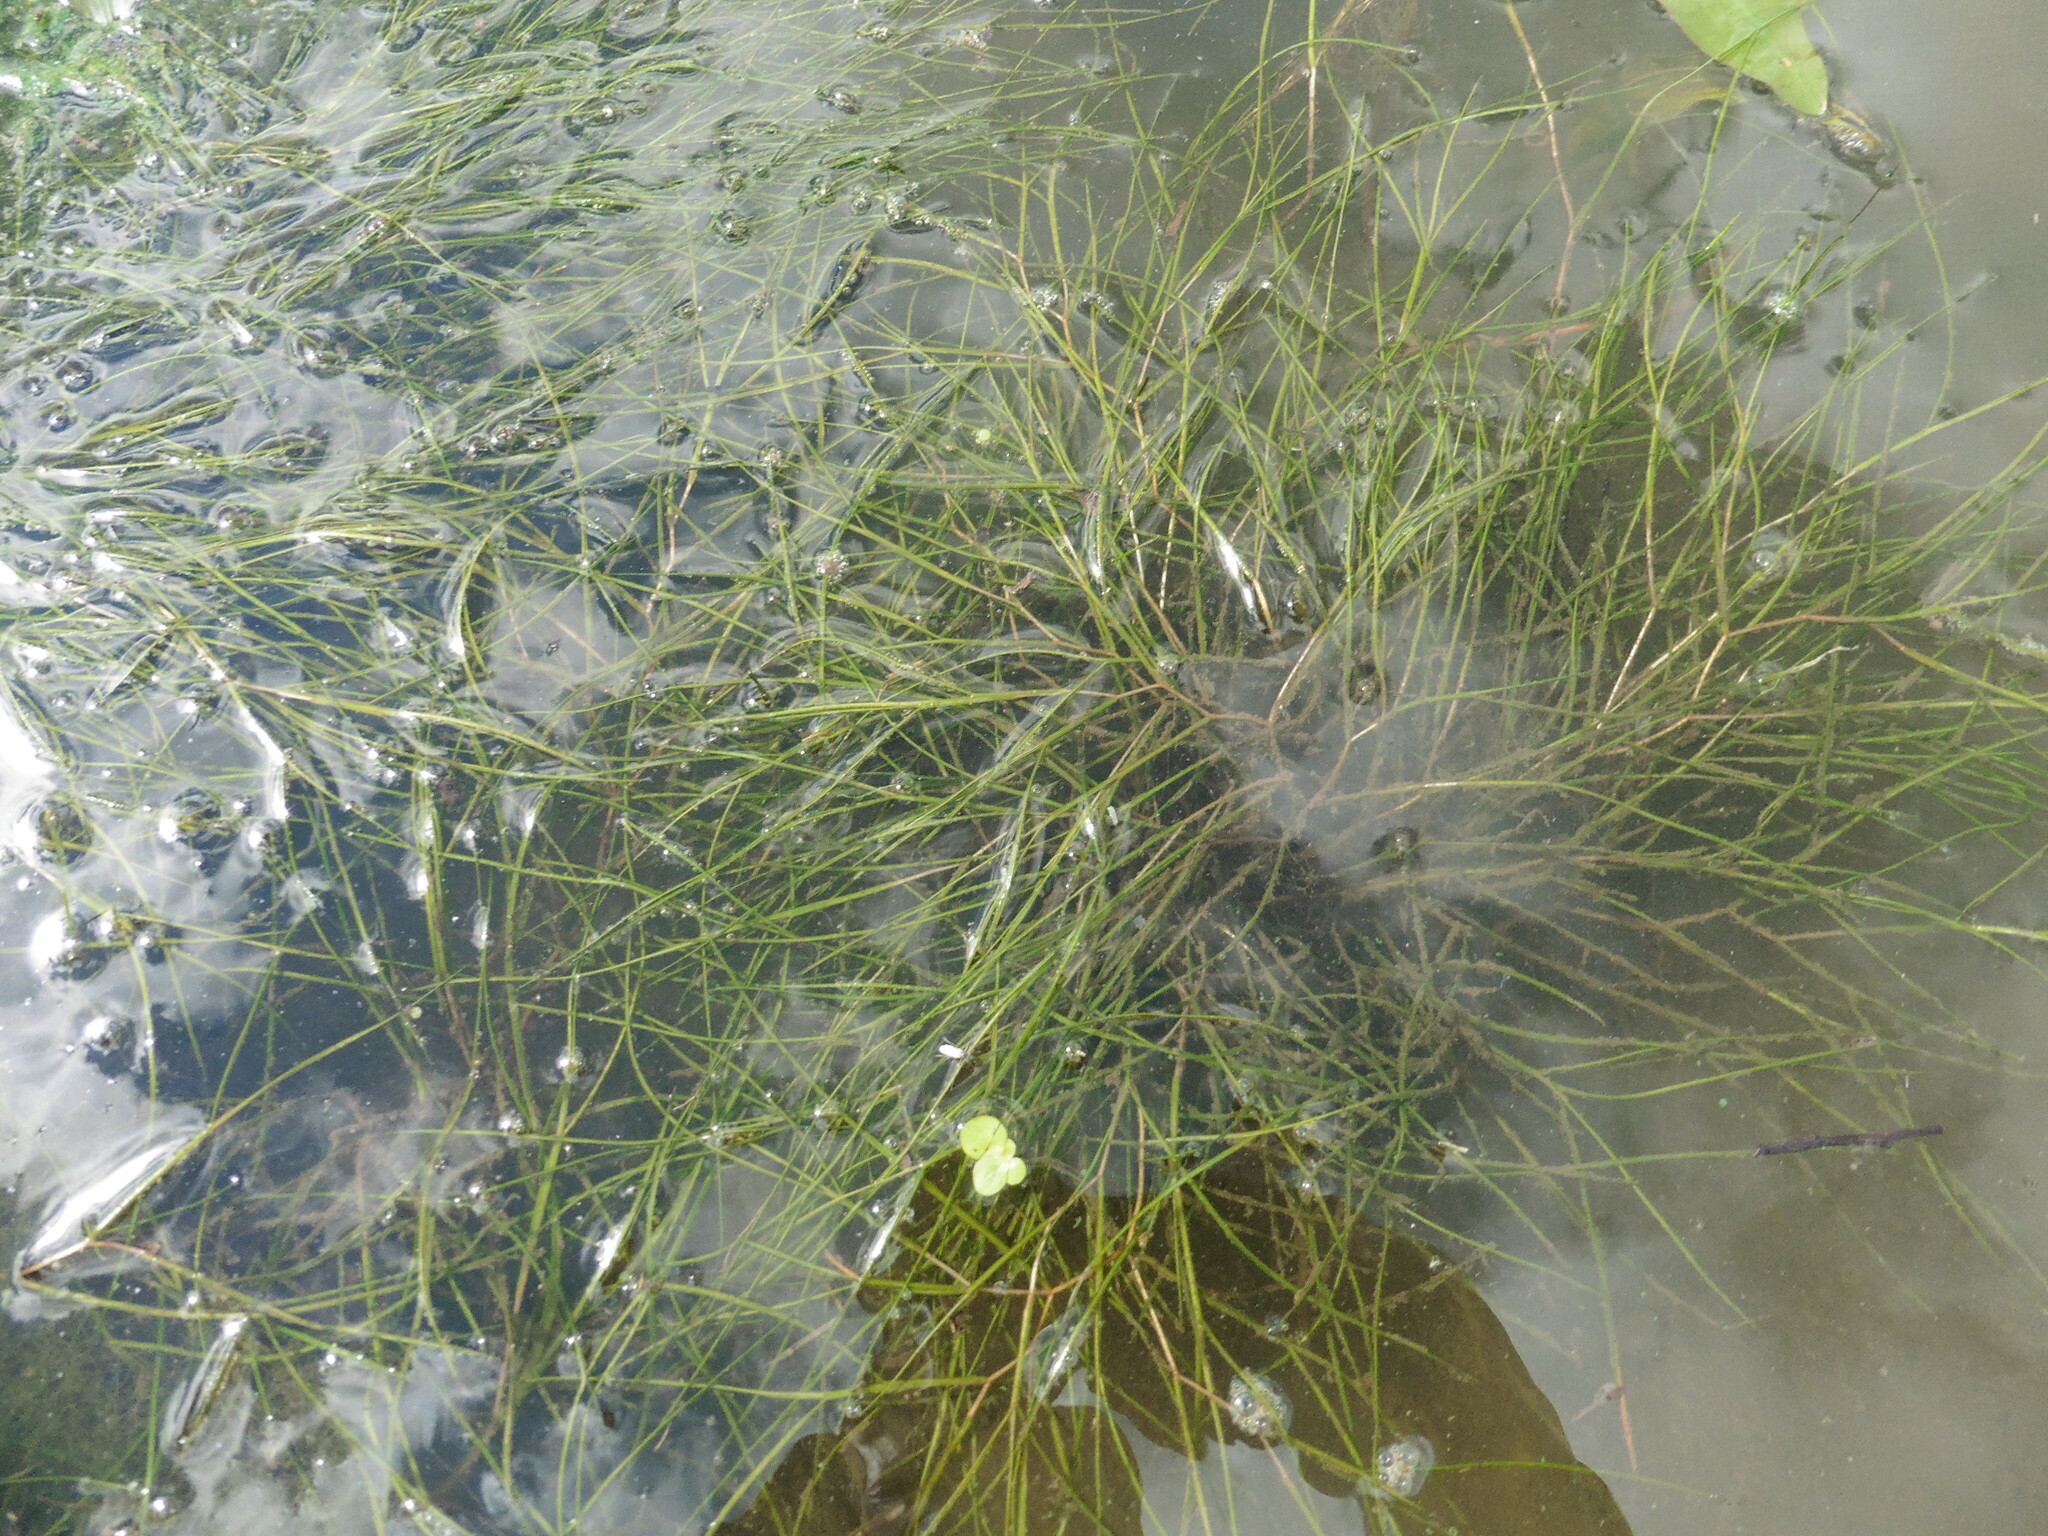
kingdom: Plantae
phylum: Tracheophyta
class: Liliopsida
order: Alismatales
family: Potamogetonaceae
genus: Stuckenia
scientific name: Stuckenia pectinata
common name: Sago pondweed
